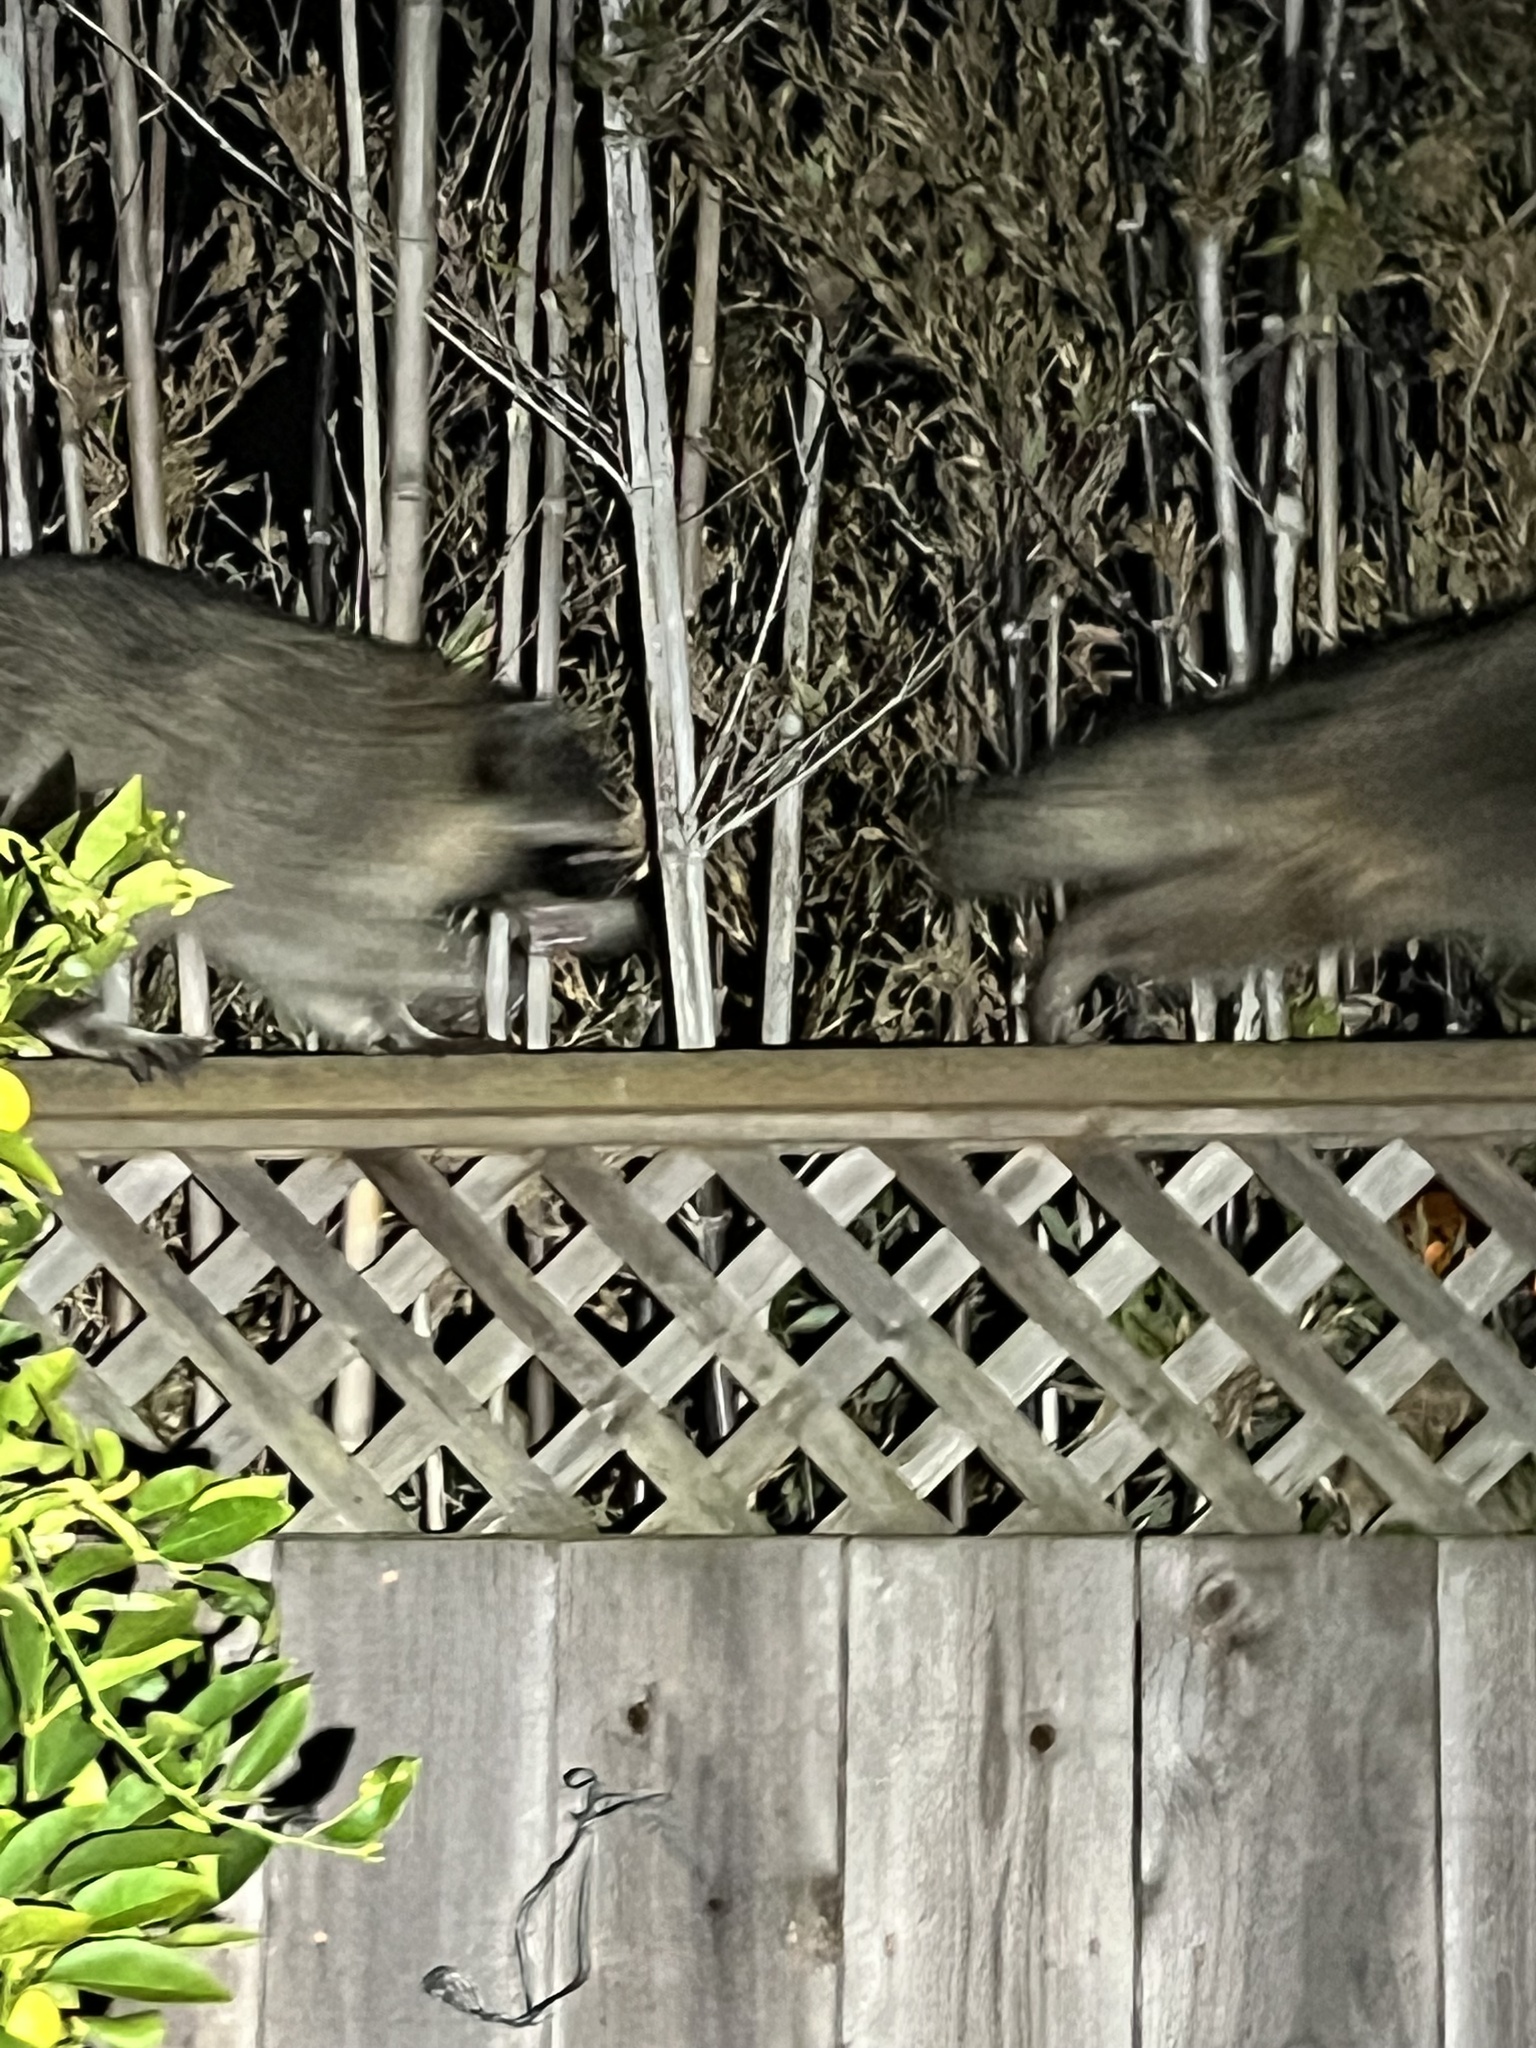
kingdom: Animalia
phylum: Chordata
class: Mammalia
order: Carnivora
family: Procyonidae
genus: Procyon
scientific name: Procyon lotor
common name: Raccoon
